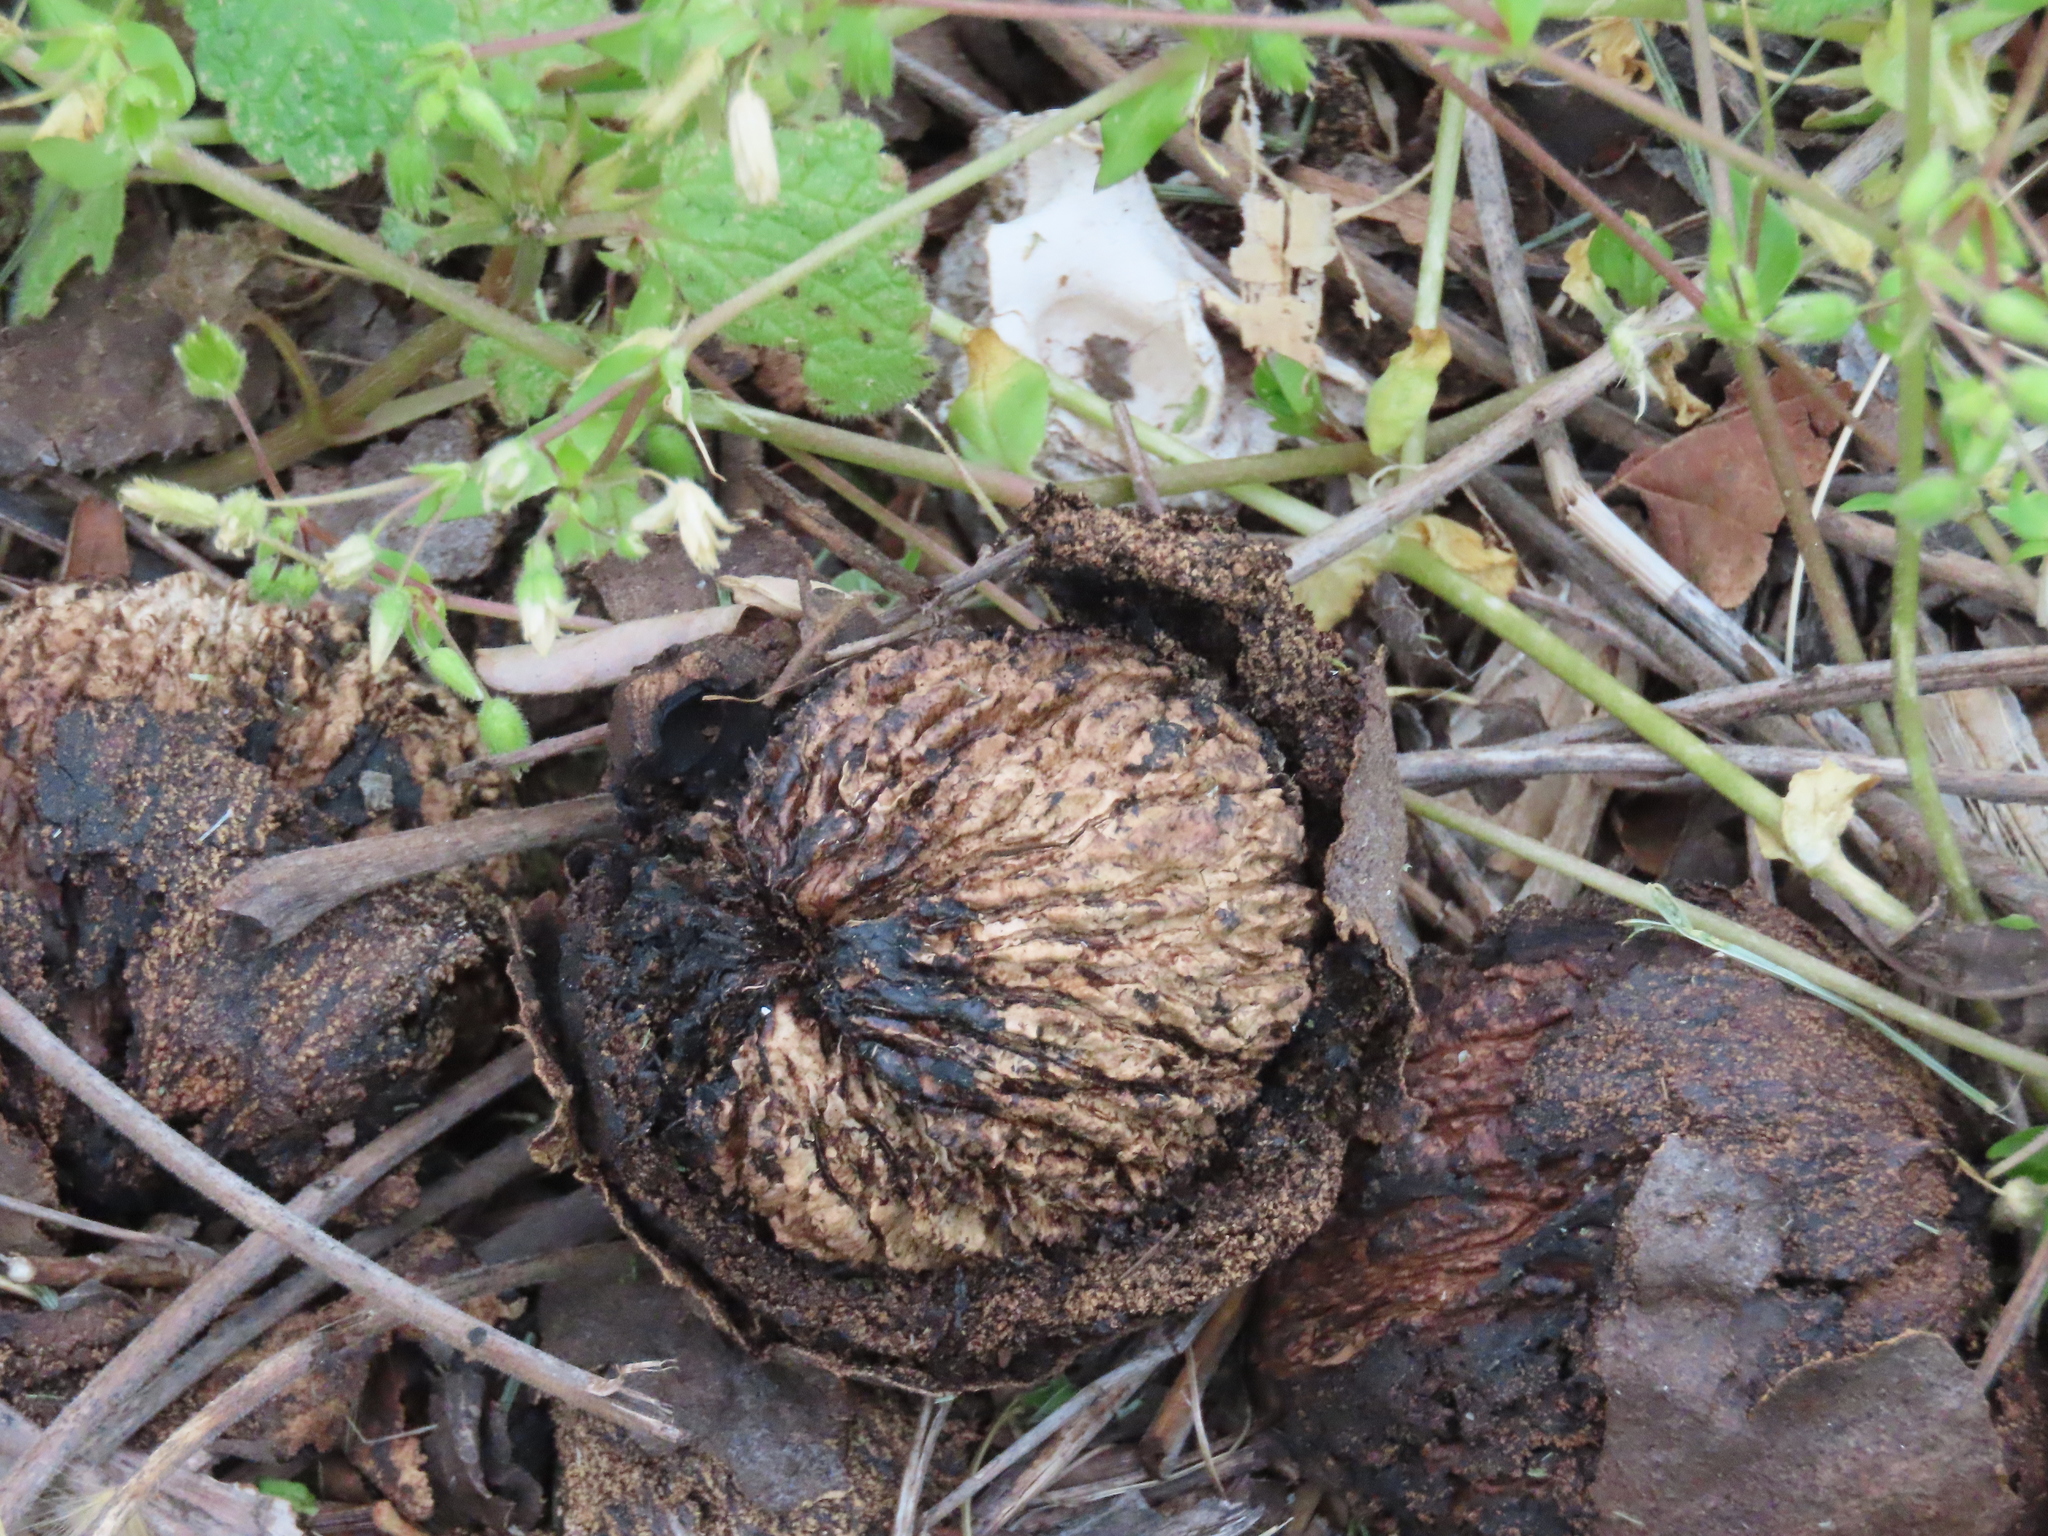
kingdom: Plantae
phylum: Tracheophyta
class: Magnoliopsida
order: Fagales
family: Juglandaceae
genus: Juglans
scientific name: Juglans nigra
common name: Black walnut
